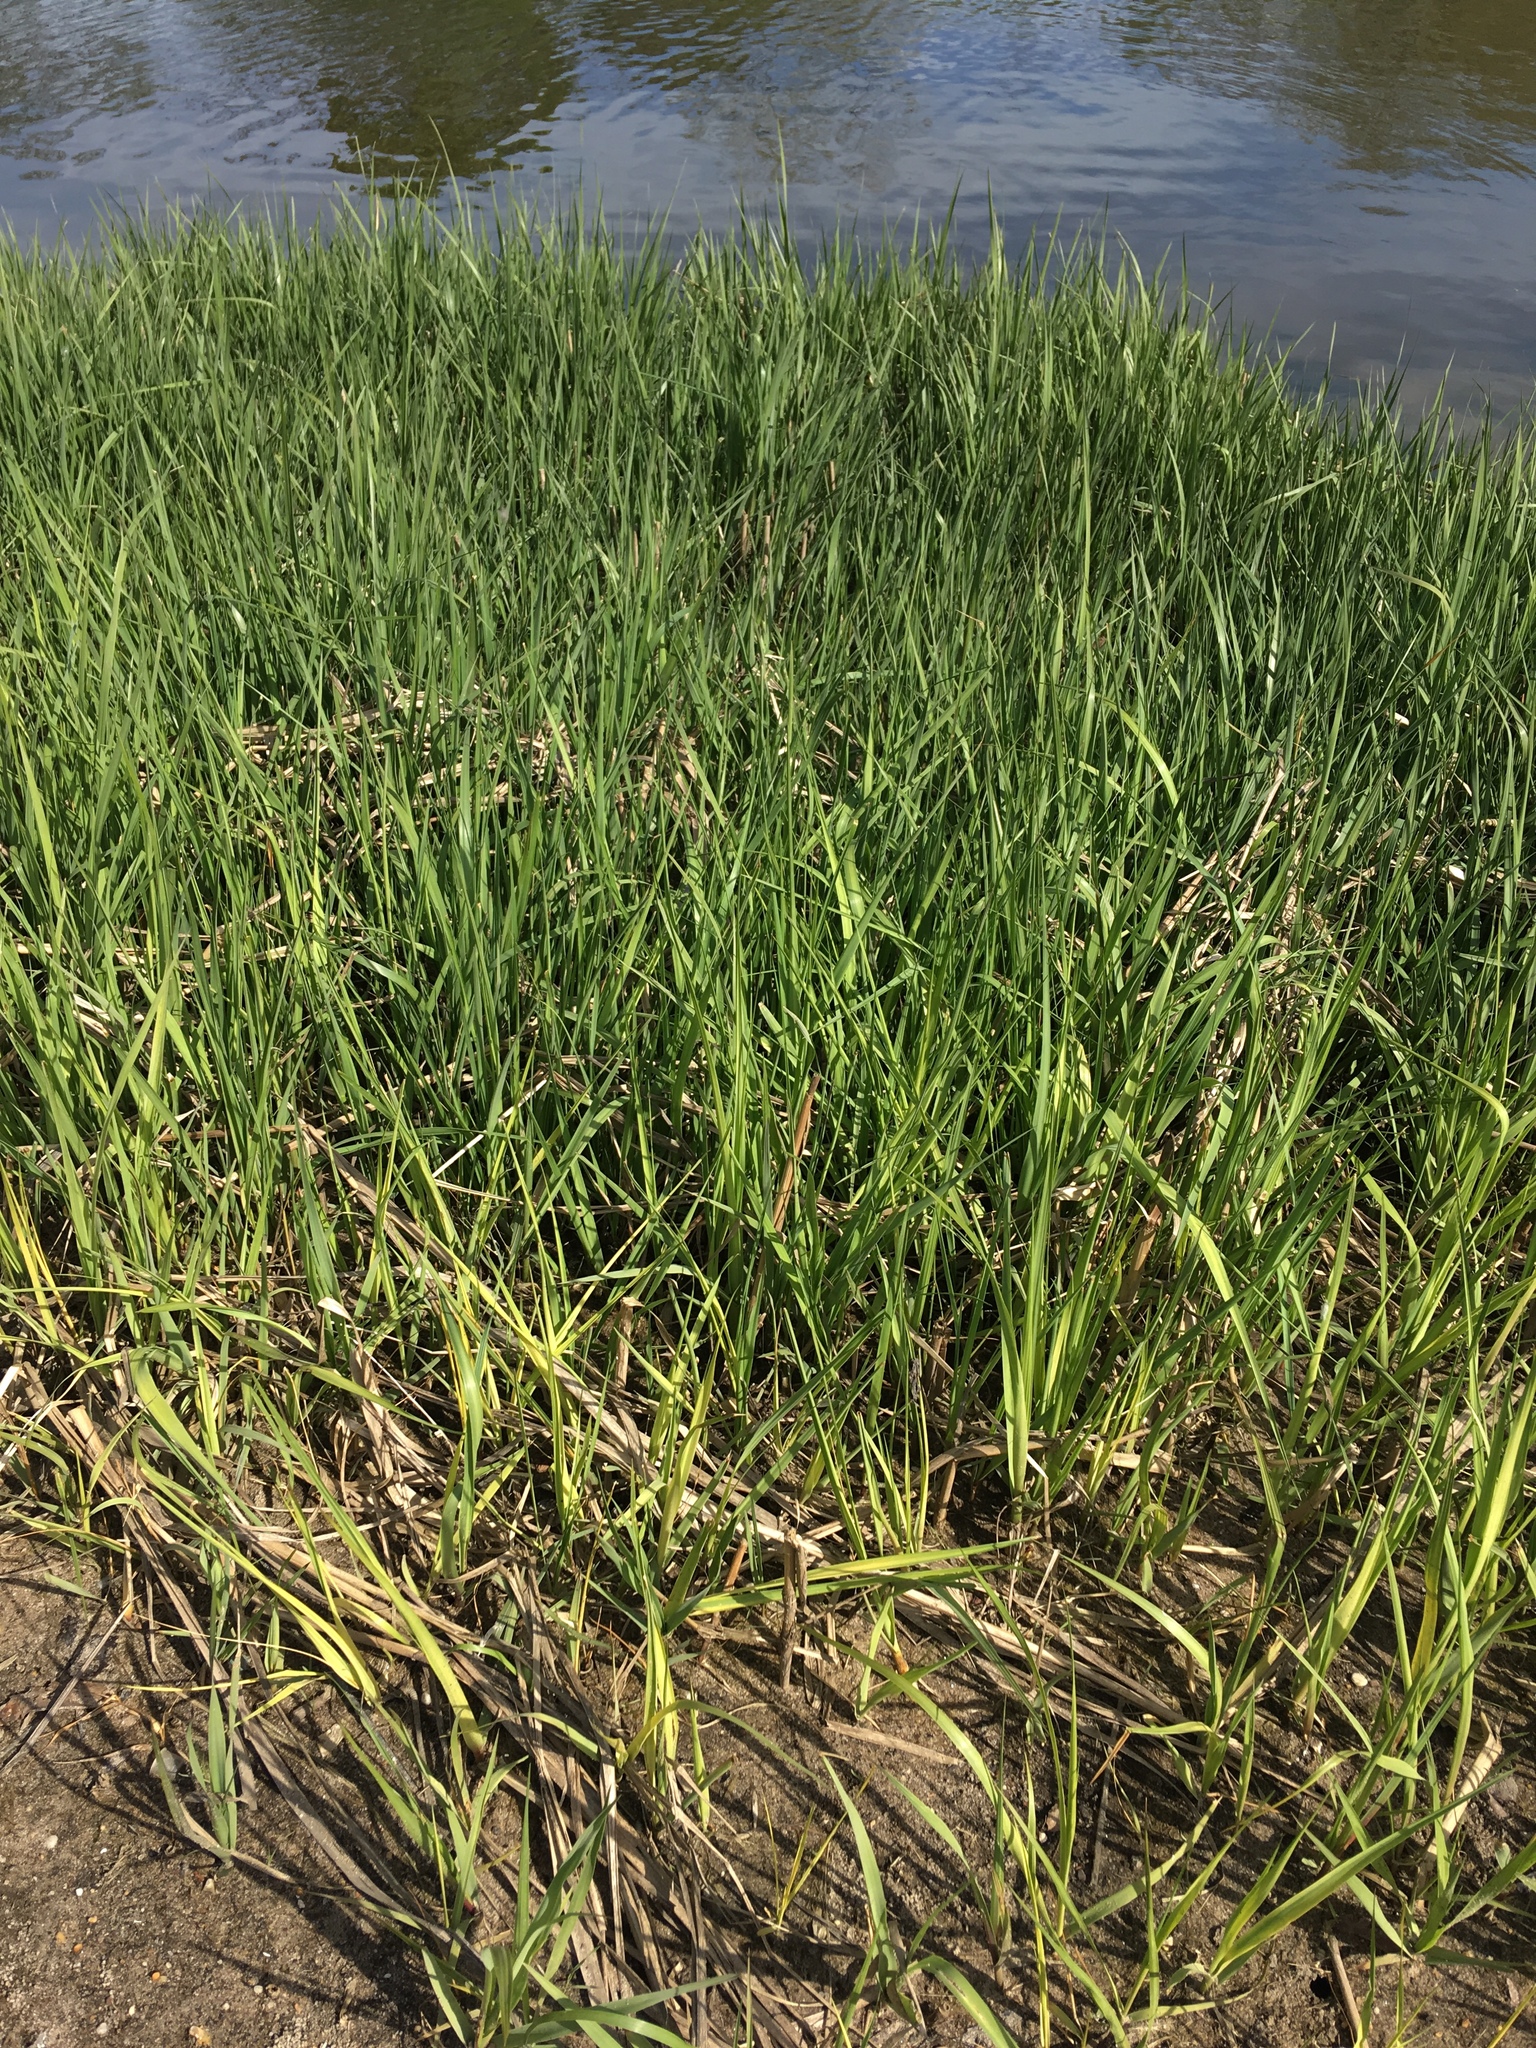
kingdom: Plantae
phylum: Tracheophyta
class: Liliopsida
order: Poales
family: Poaceae
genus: Sporobolus
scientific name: Sporobolus alterniflorus
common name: Atlantic cordgrass
